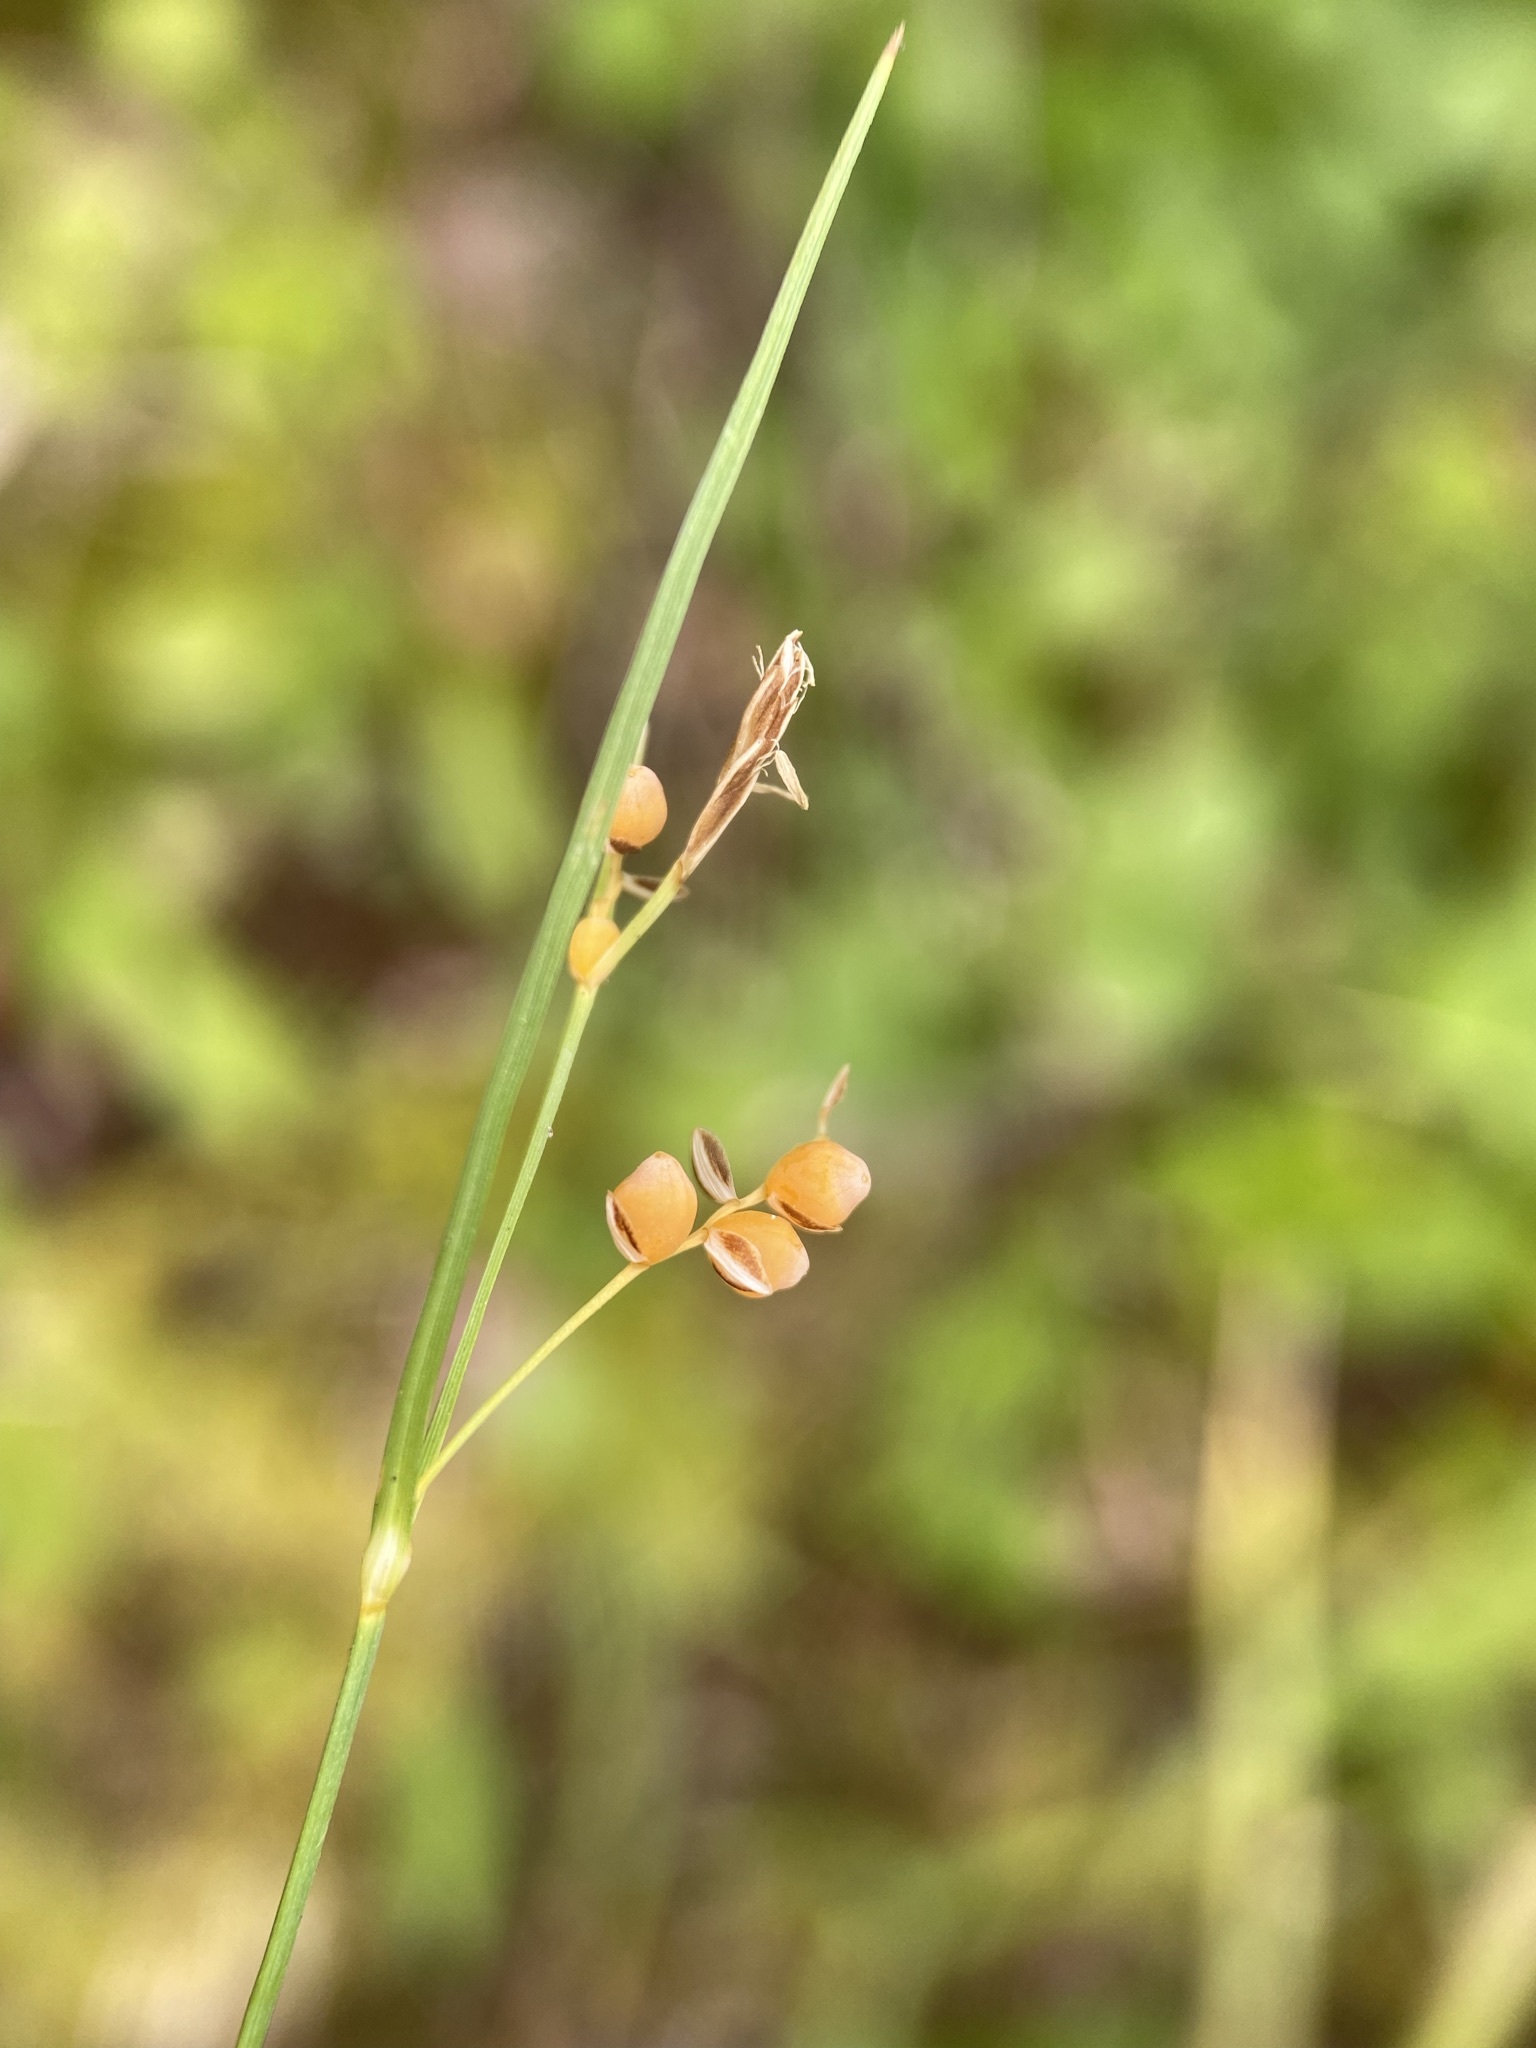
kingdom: Plantae
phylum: Tracheophyta
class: Liliopsida
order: Poales
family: Cyperaceae
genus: Carex
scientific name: Carex aurea
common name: Golden sedge
